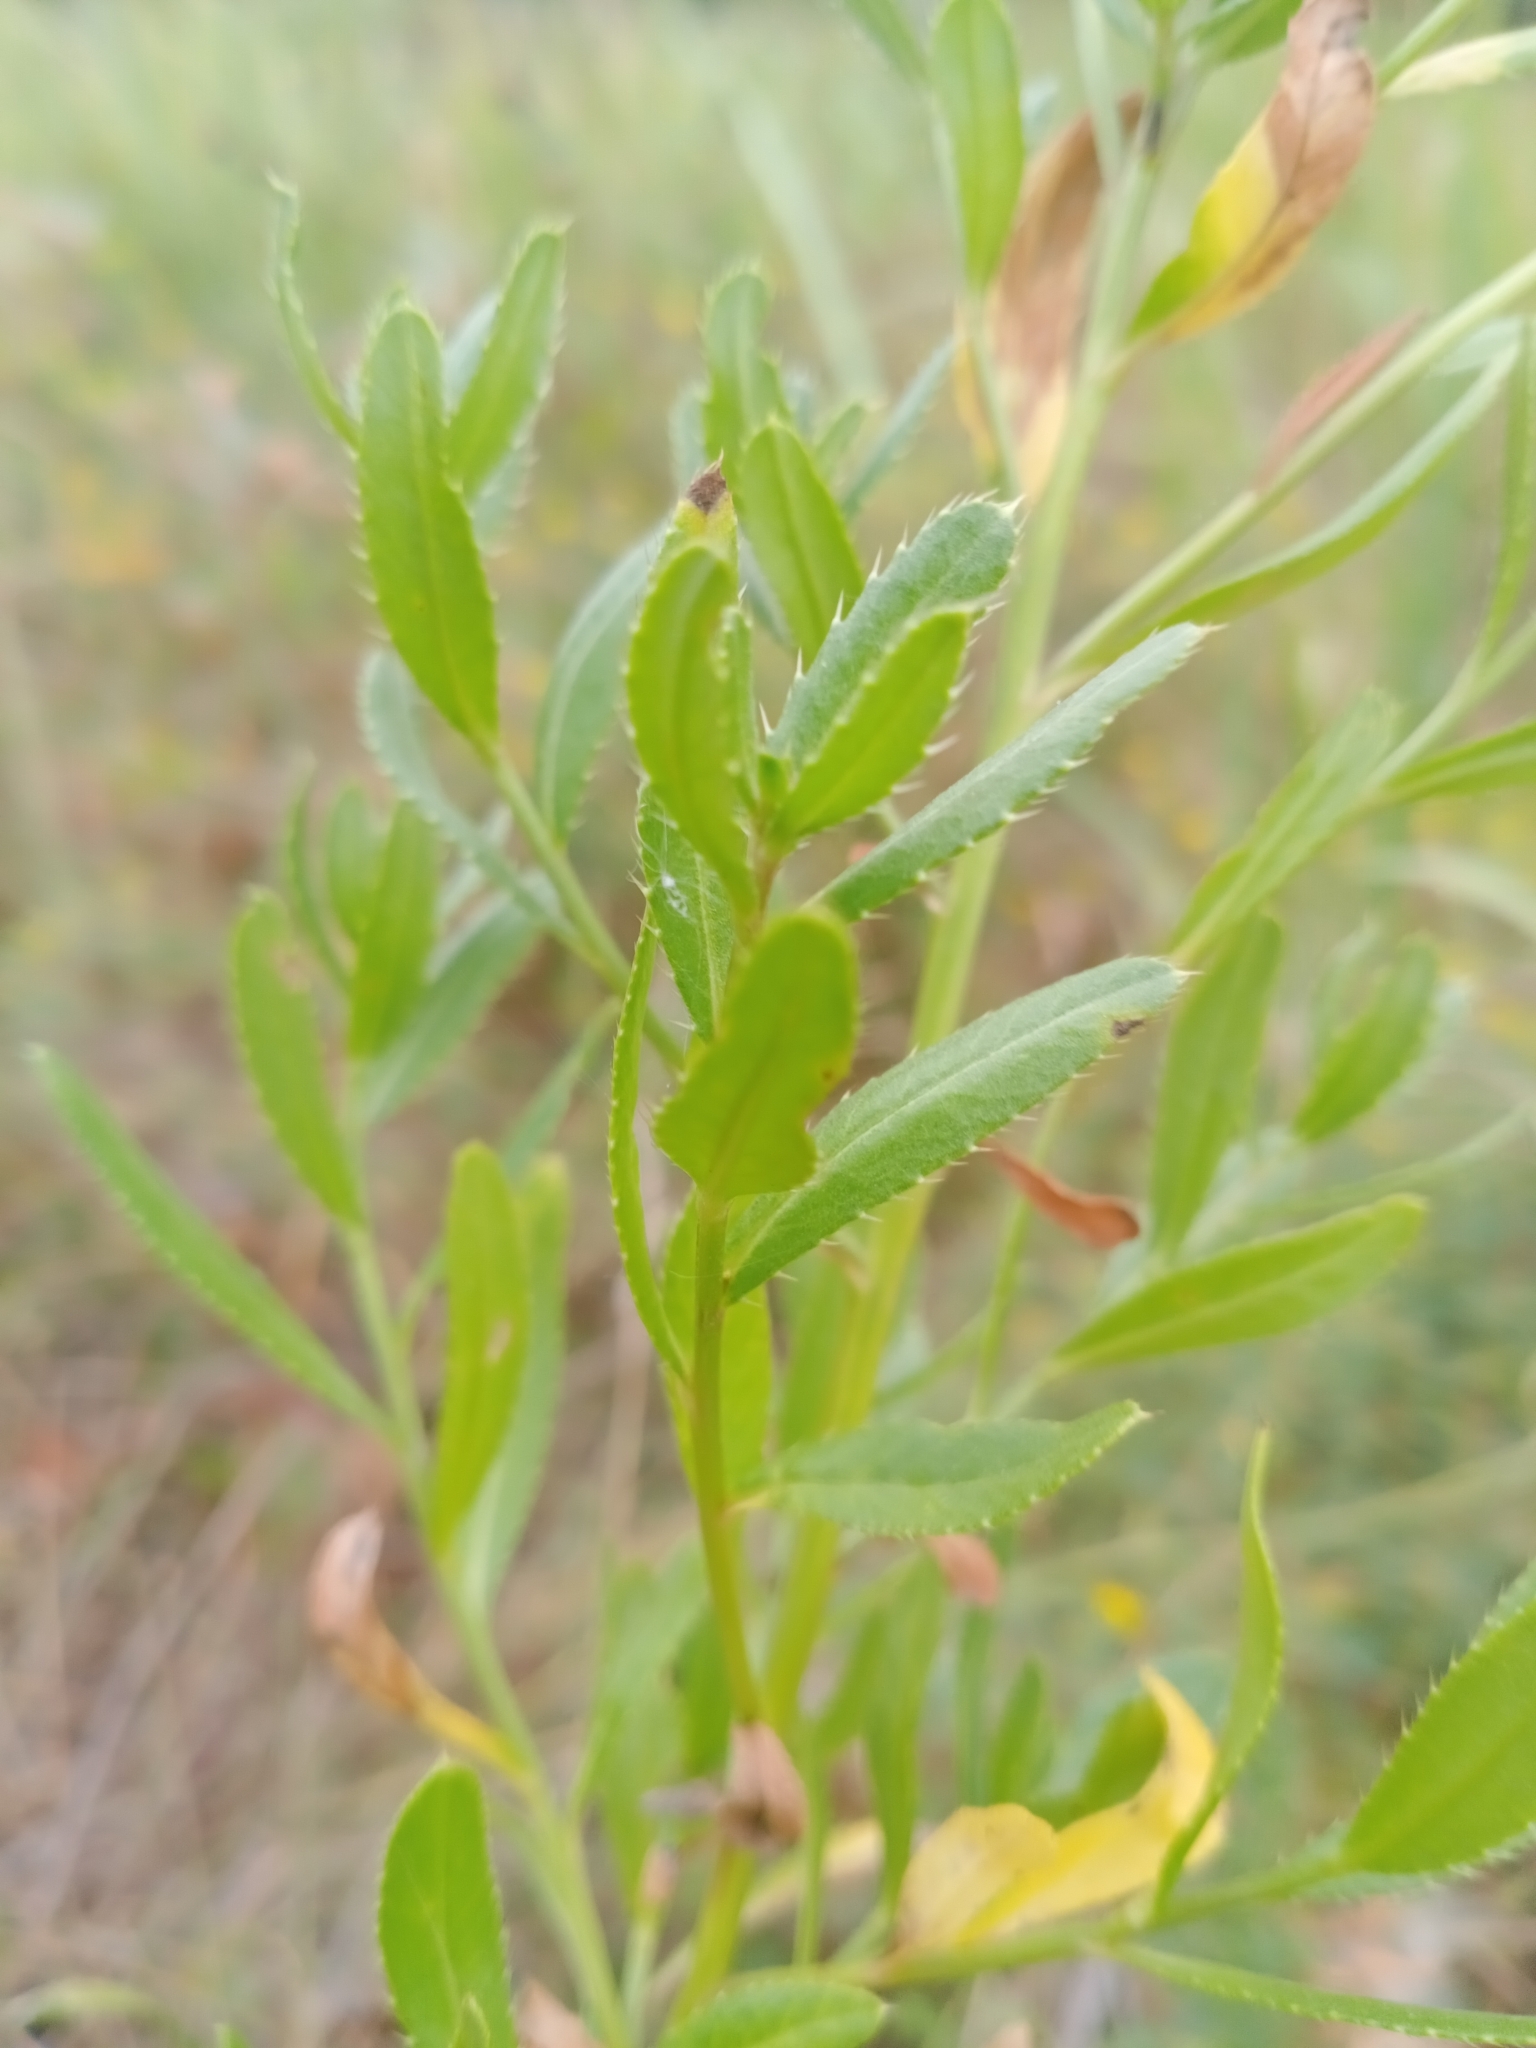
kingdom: Plantae
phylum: Tracheophyta
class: Magnoliopsida
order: Asterales
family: Asteraceae
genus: Cirsium
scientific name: Cirsium arvense
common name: Creeping thistle
